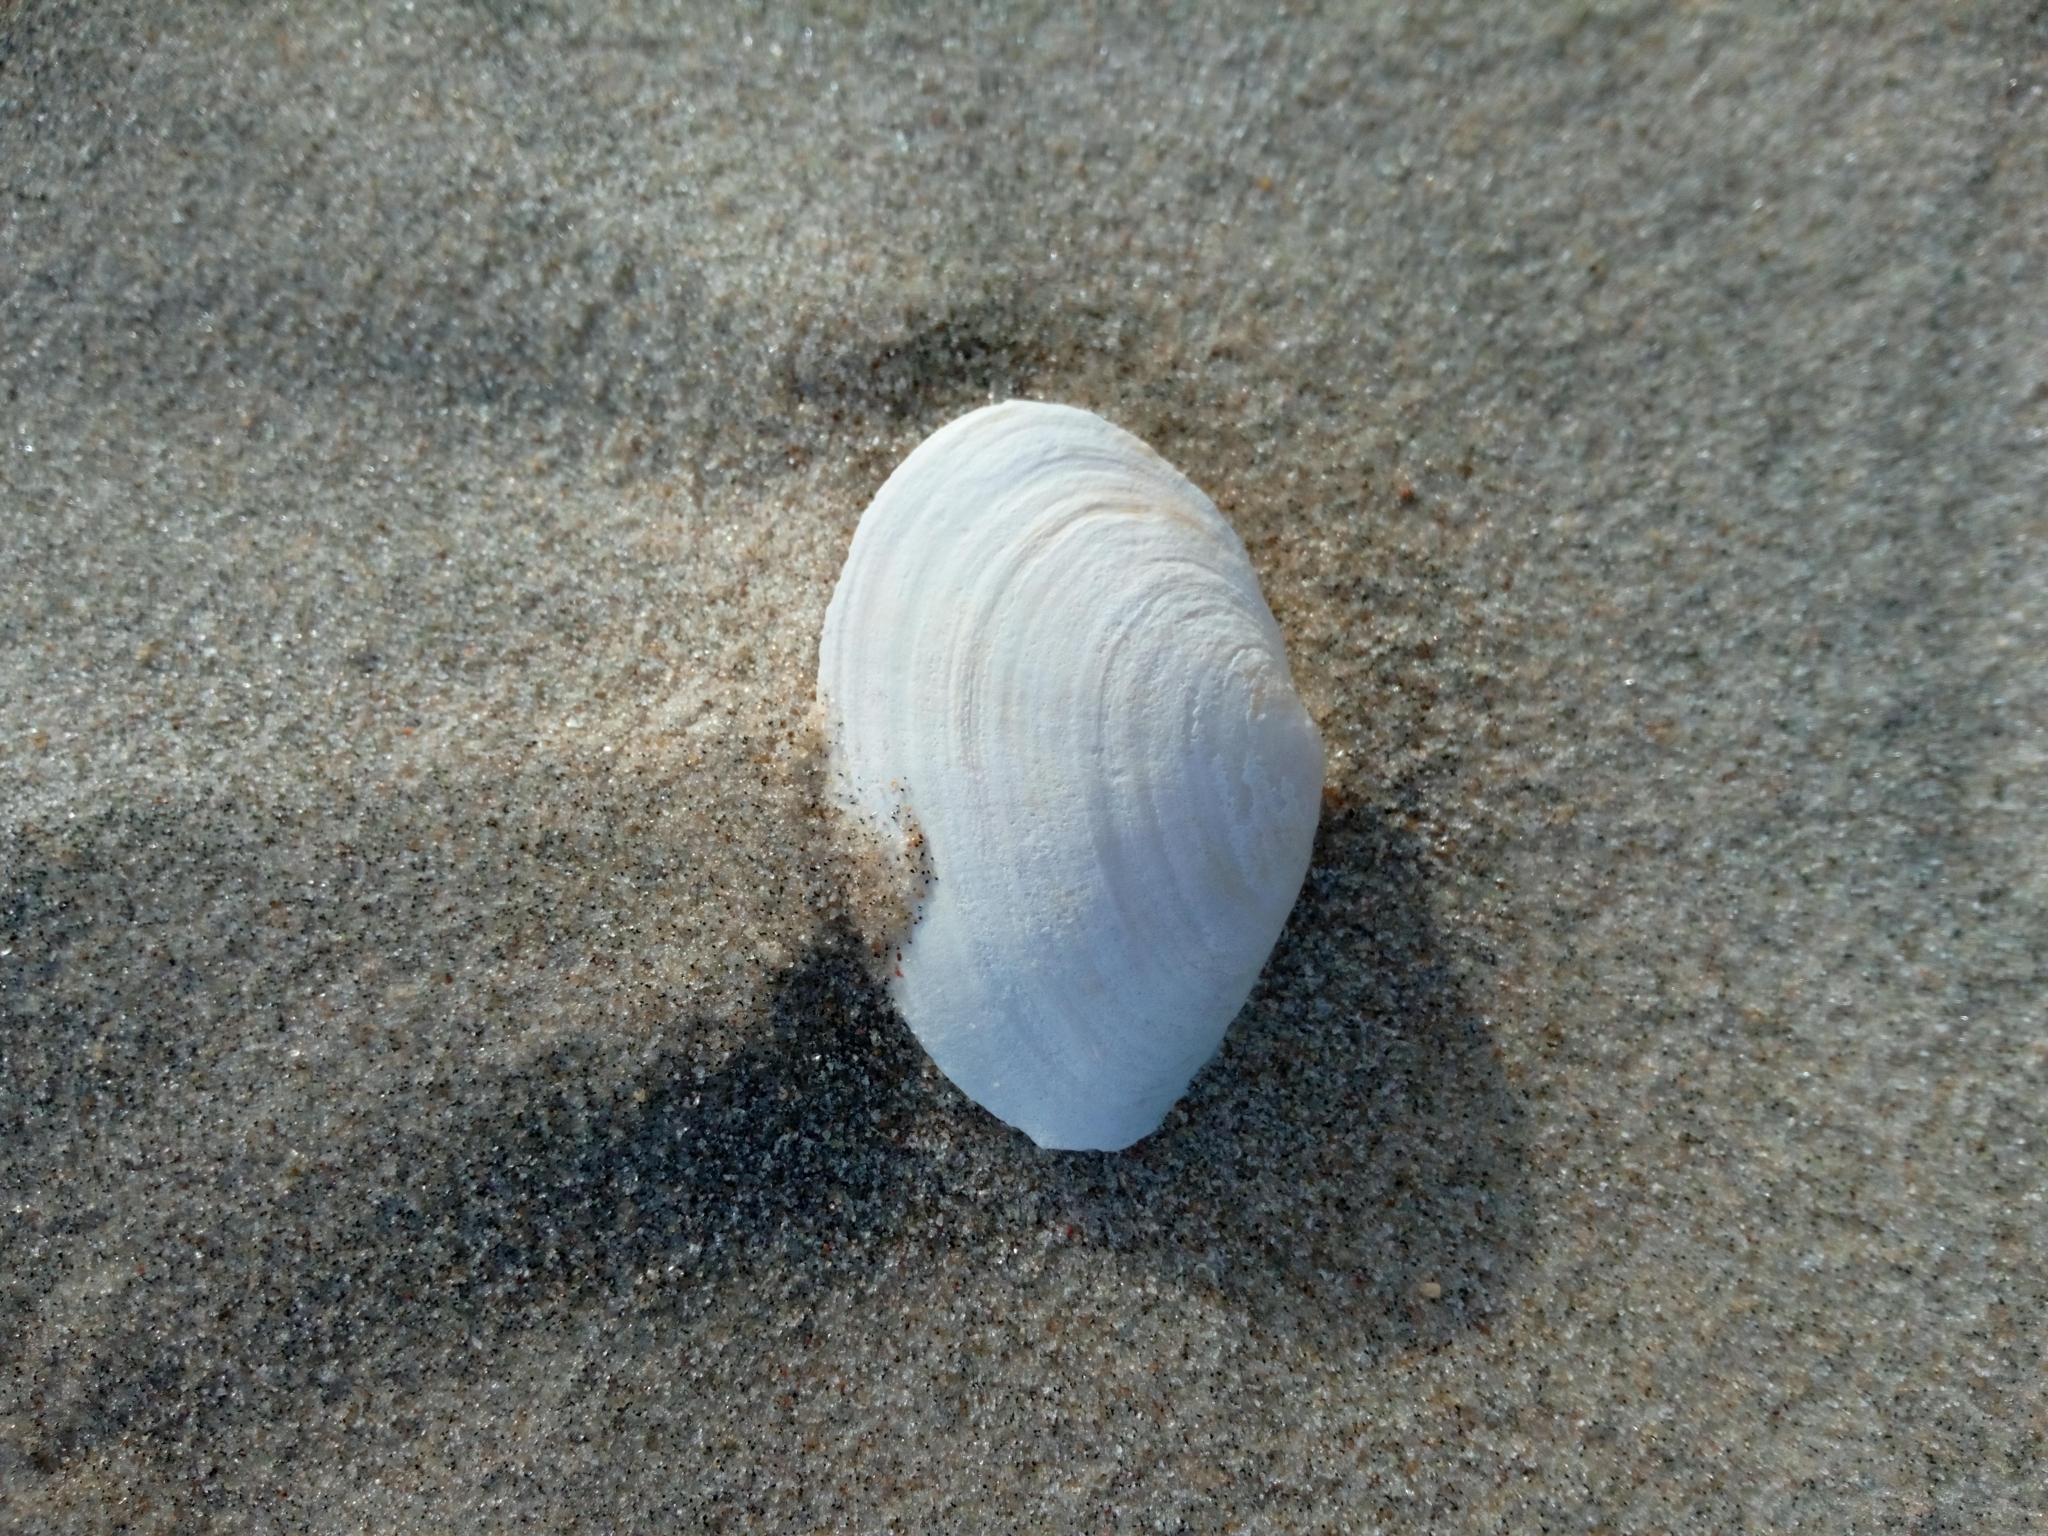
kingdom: Animalia
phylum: Mollusca
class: Bivalvia
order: Myida
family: Myidae
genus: Mya
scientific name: Mya arenaria
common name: Soft-shelled clam
